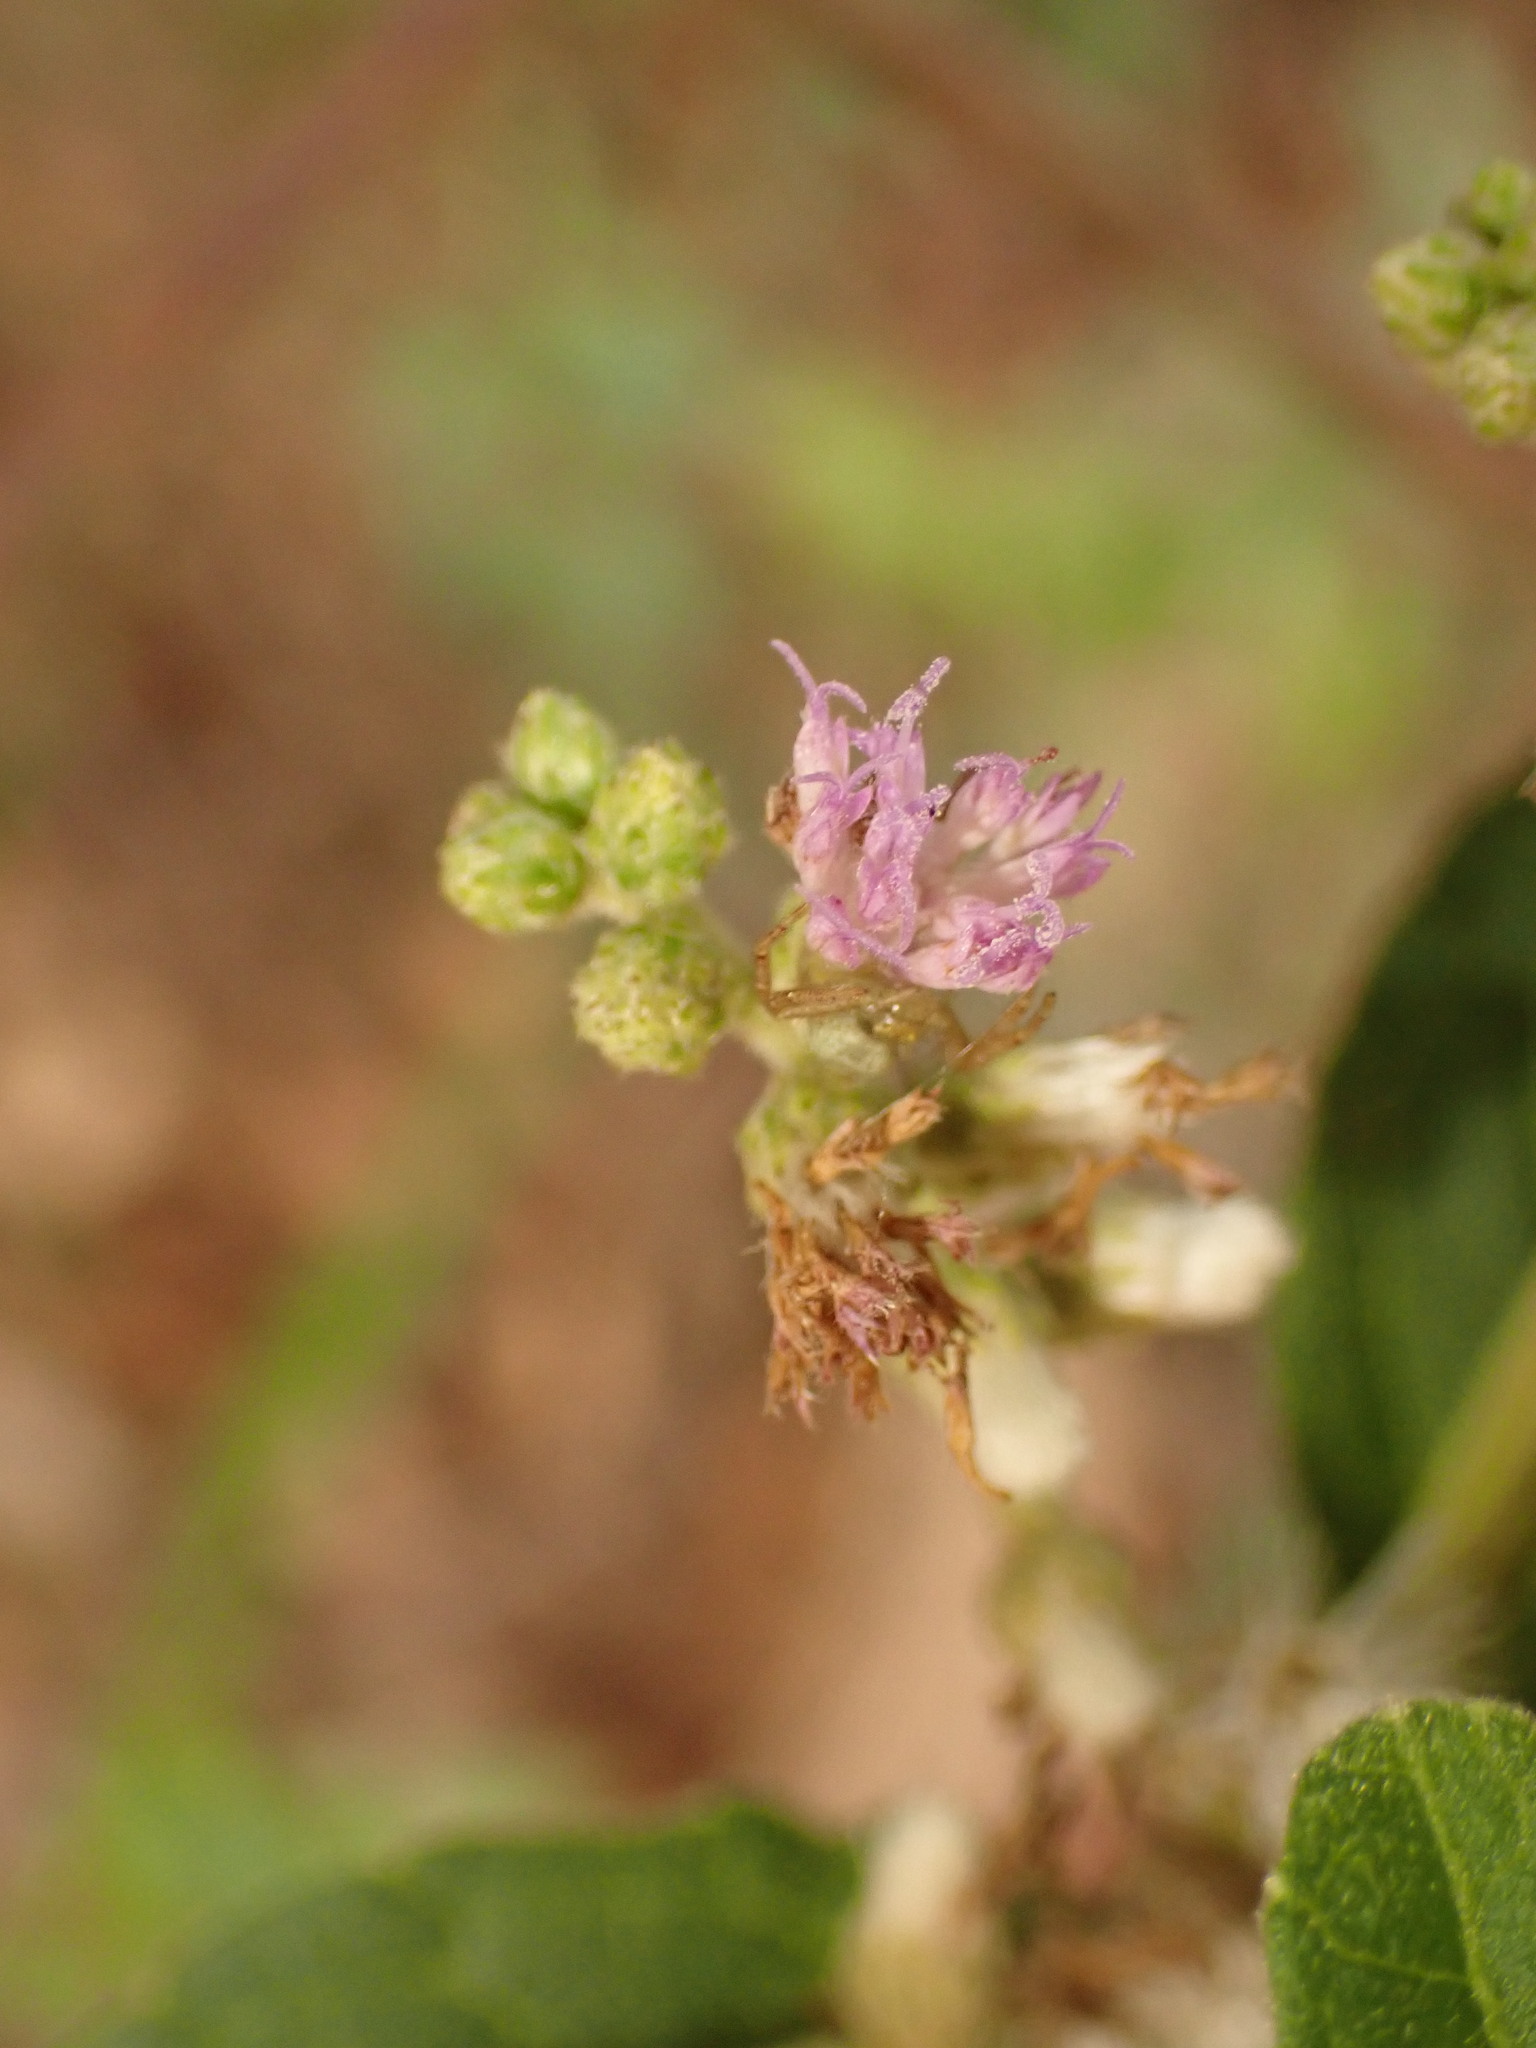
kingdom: Plantae
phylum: Tracheophyta
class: Magnoliopsida
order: Asterales
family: Asteraceae
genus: Cyrtocymura
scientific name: Cyrtocymura scorpioides
